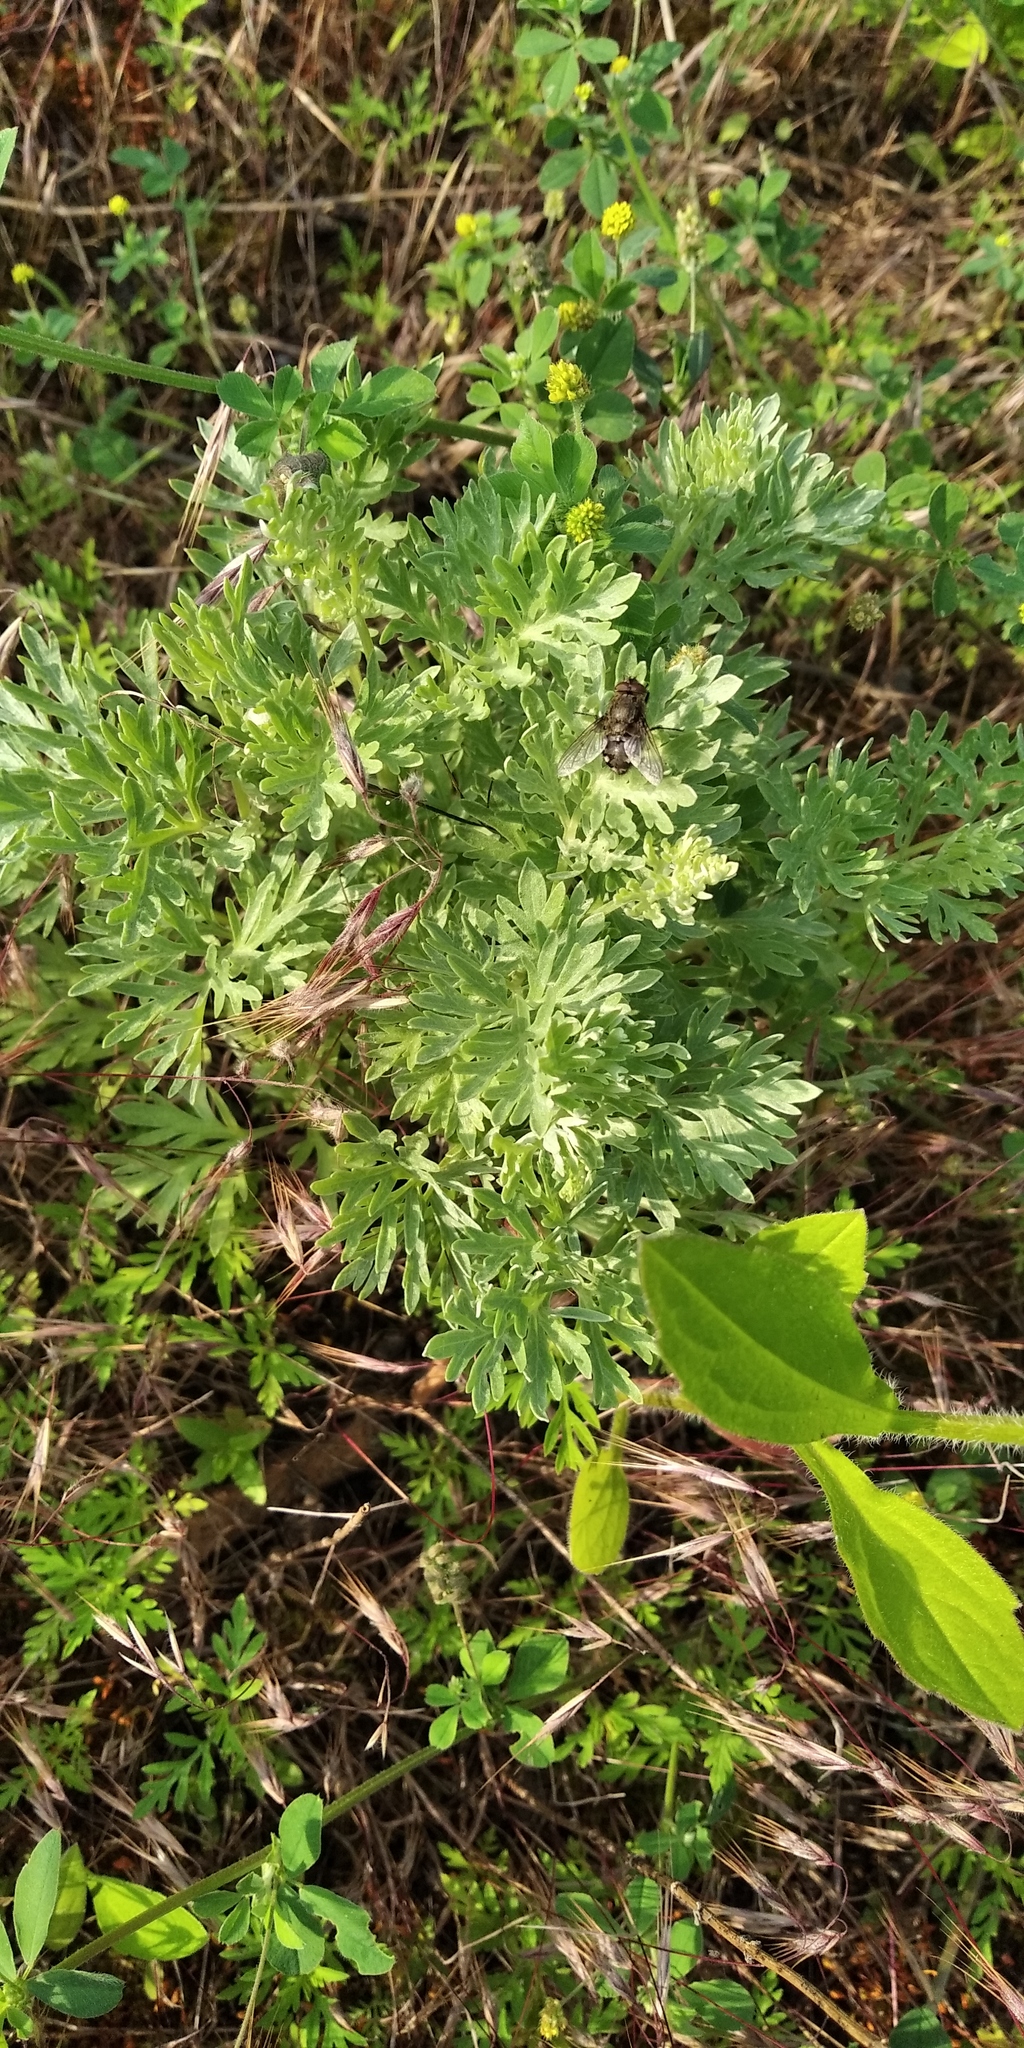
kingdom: Plantae
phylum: Tracheophyta
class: Magnoliopsida
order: Asterales
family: Asteraceae
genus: Artemisia
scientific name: Artemisia absinthium
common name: Wormwood
